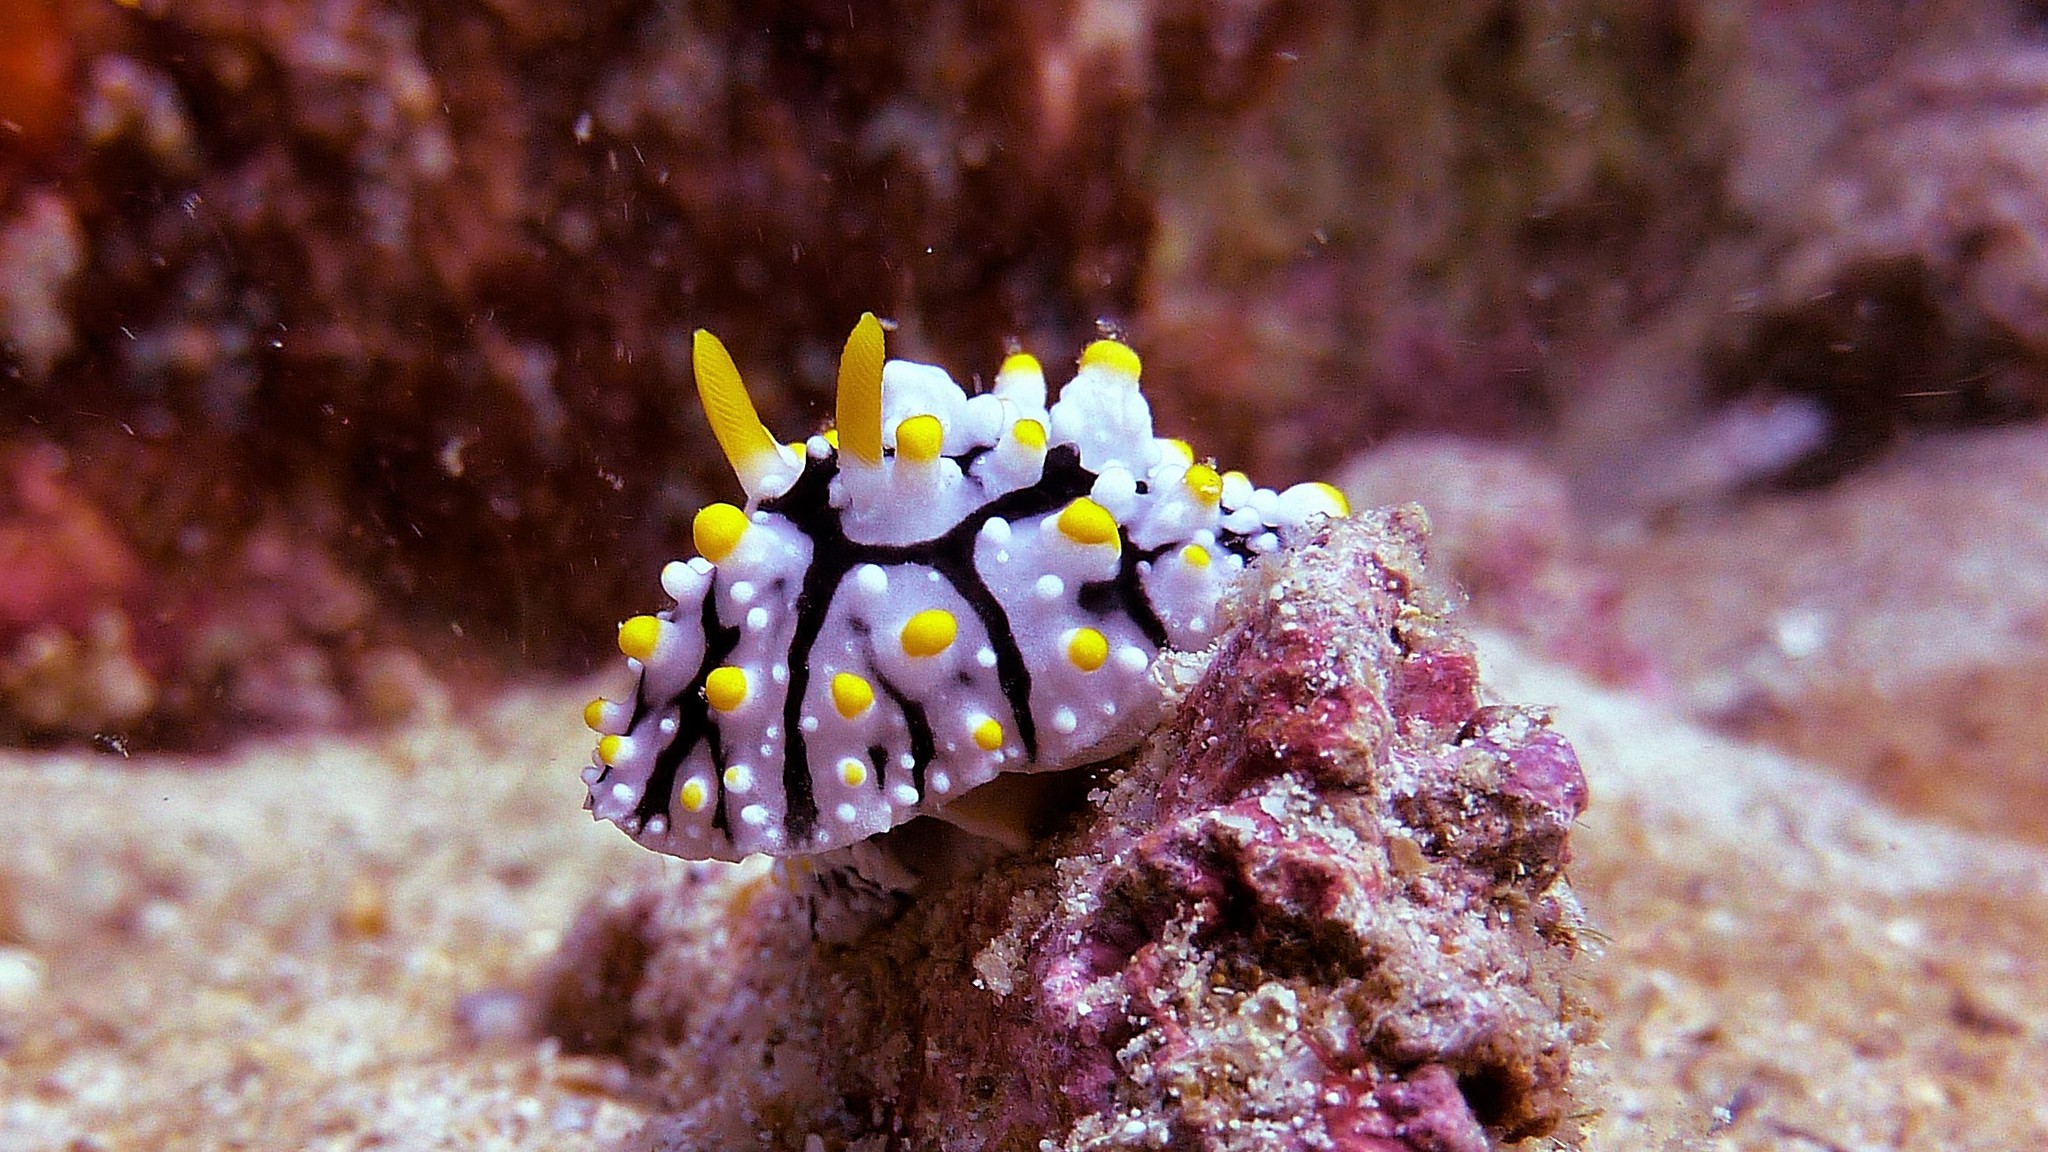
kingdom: Animalia
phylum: Mollusca
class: Gastropoda
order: Nudibranchia
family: Phyllidiidae
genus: Phyllidia
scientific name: Phyllidia elegans
